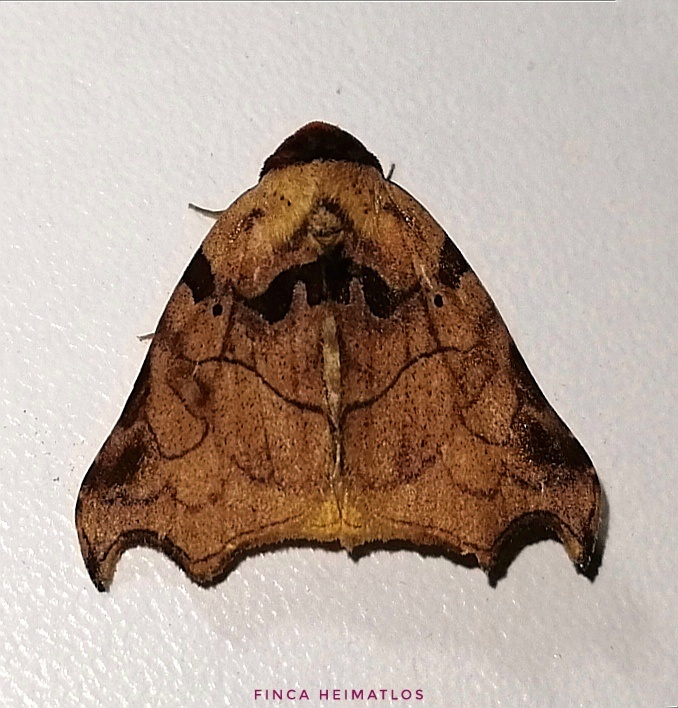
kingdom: Animalia
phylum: Arthropoda
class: Insecta
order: Lepidoptera
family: Erebidae
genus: Lephana
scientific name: Lephana metacrocea
